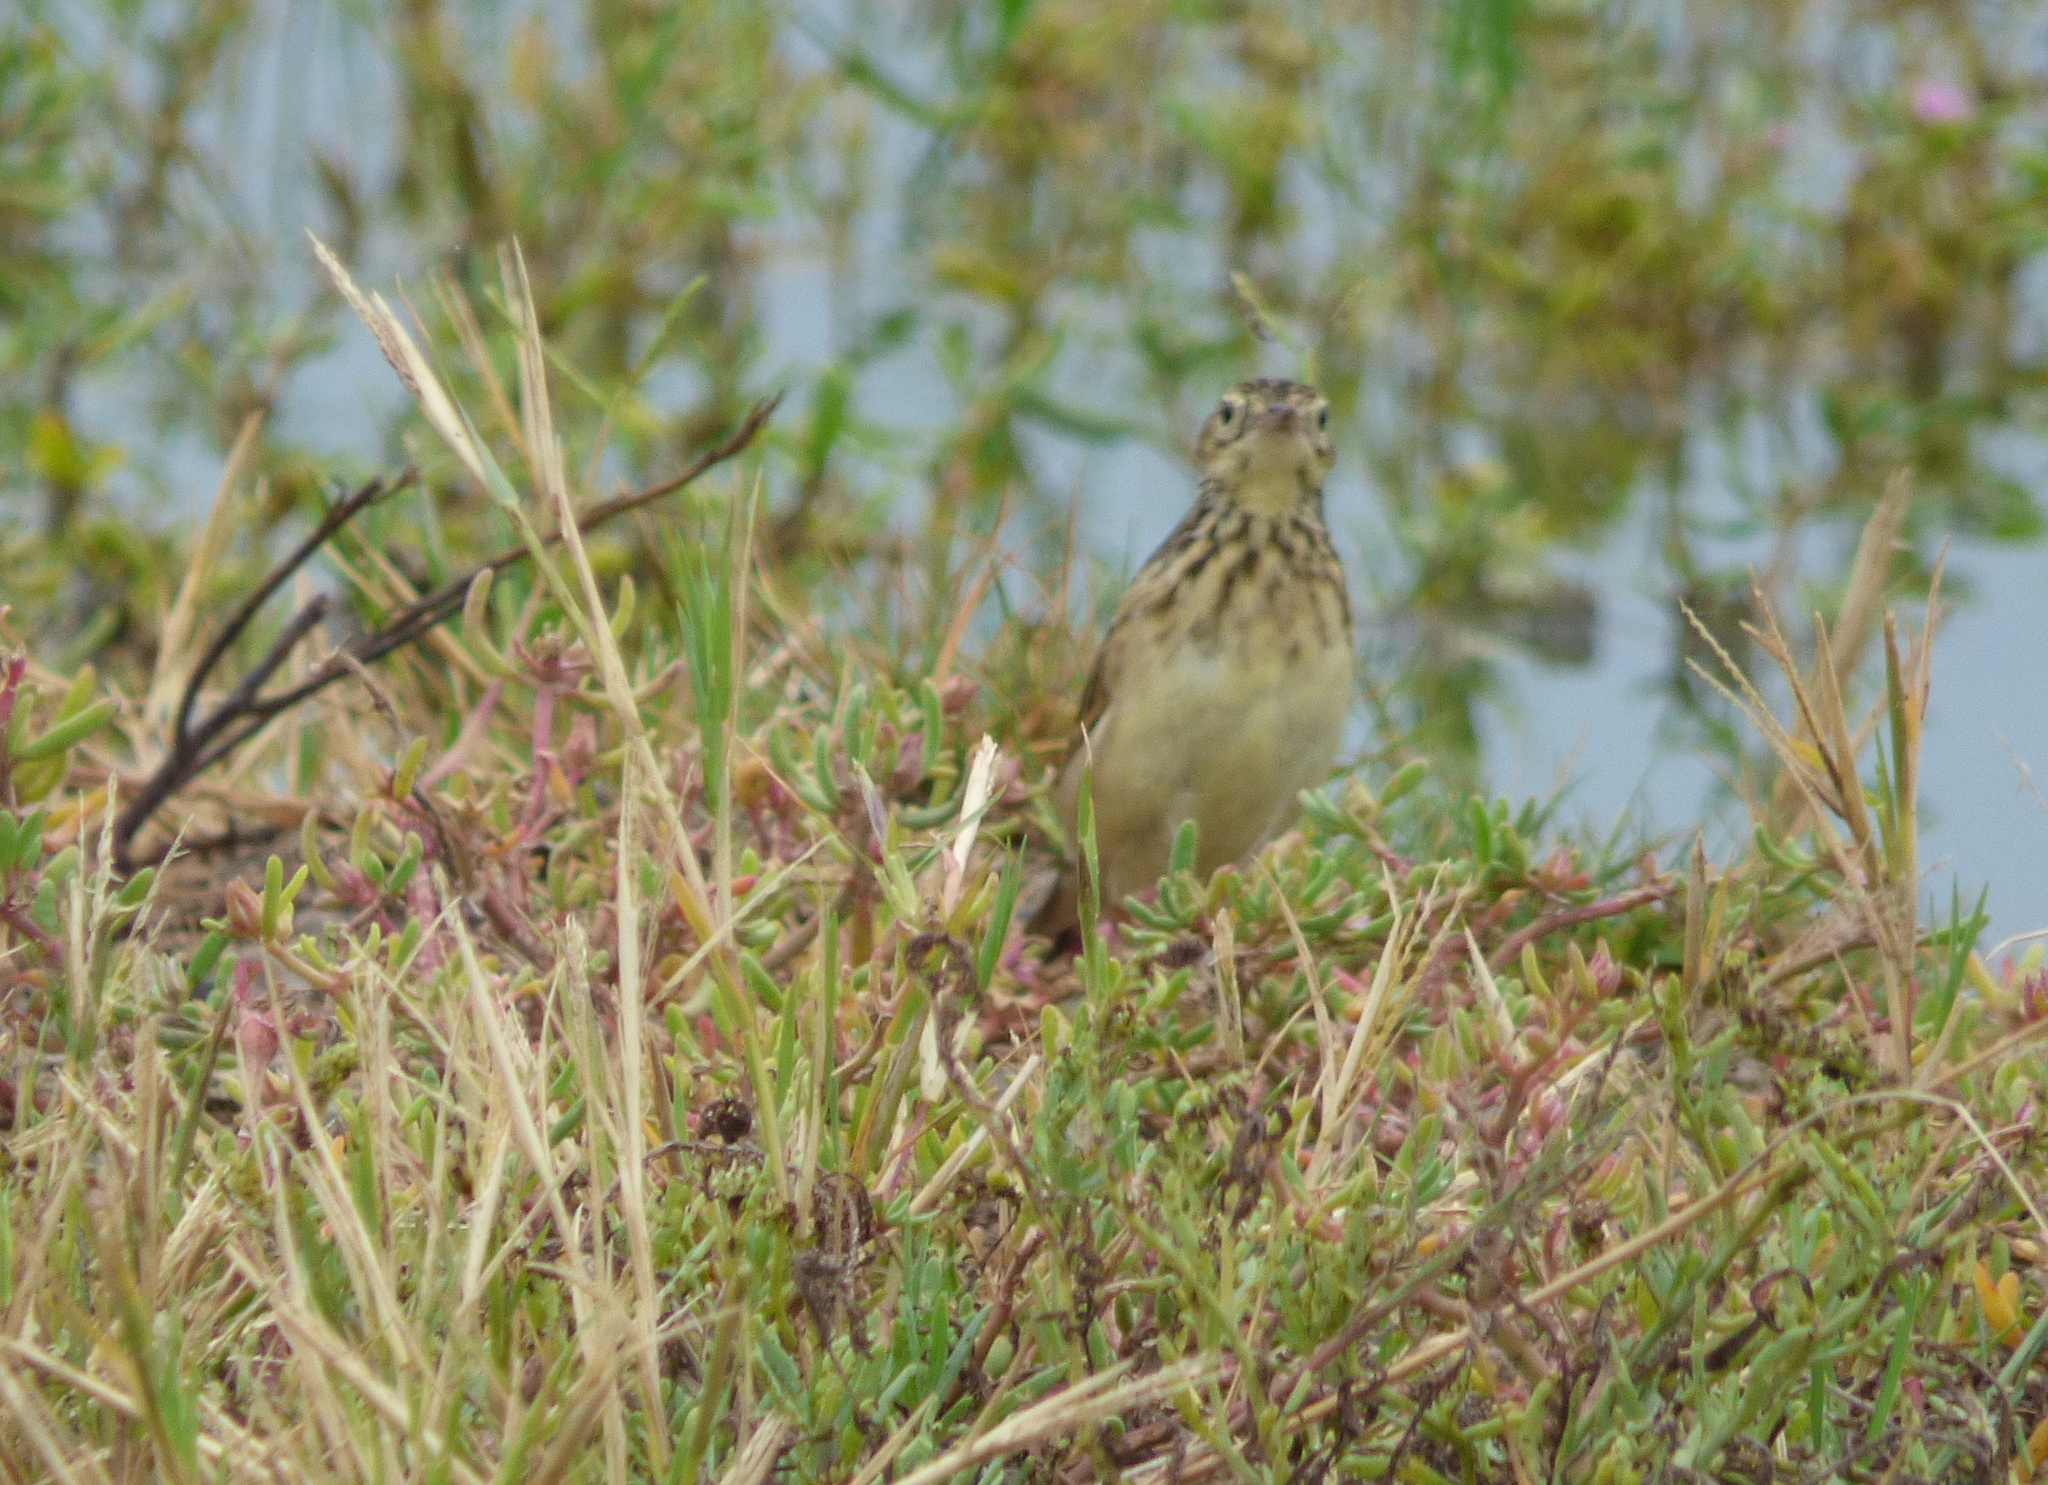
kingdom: Animalia
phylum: Chordata
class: Aves
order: Passeriformes
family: Motacillidae
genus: Anthus
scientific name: Anthus chii
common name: Yellowish pipit
